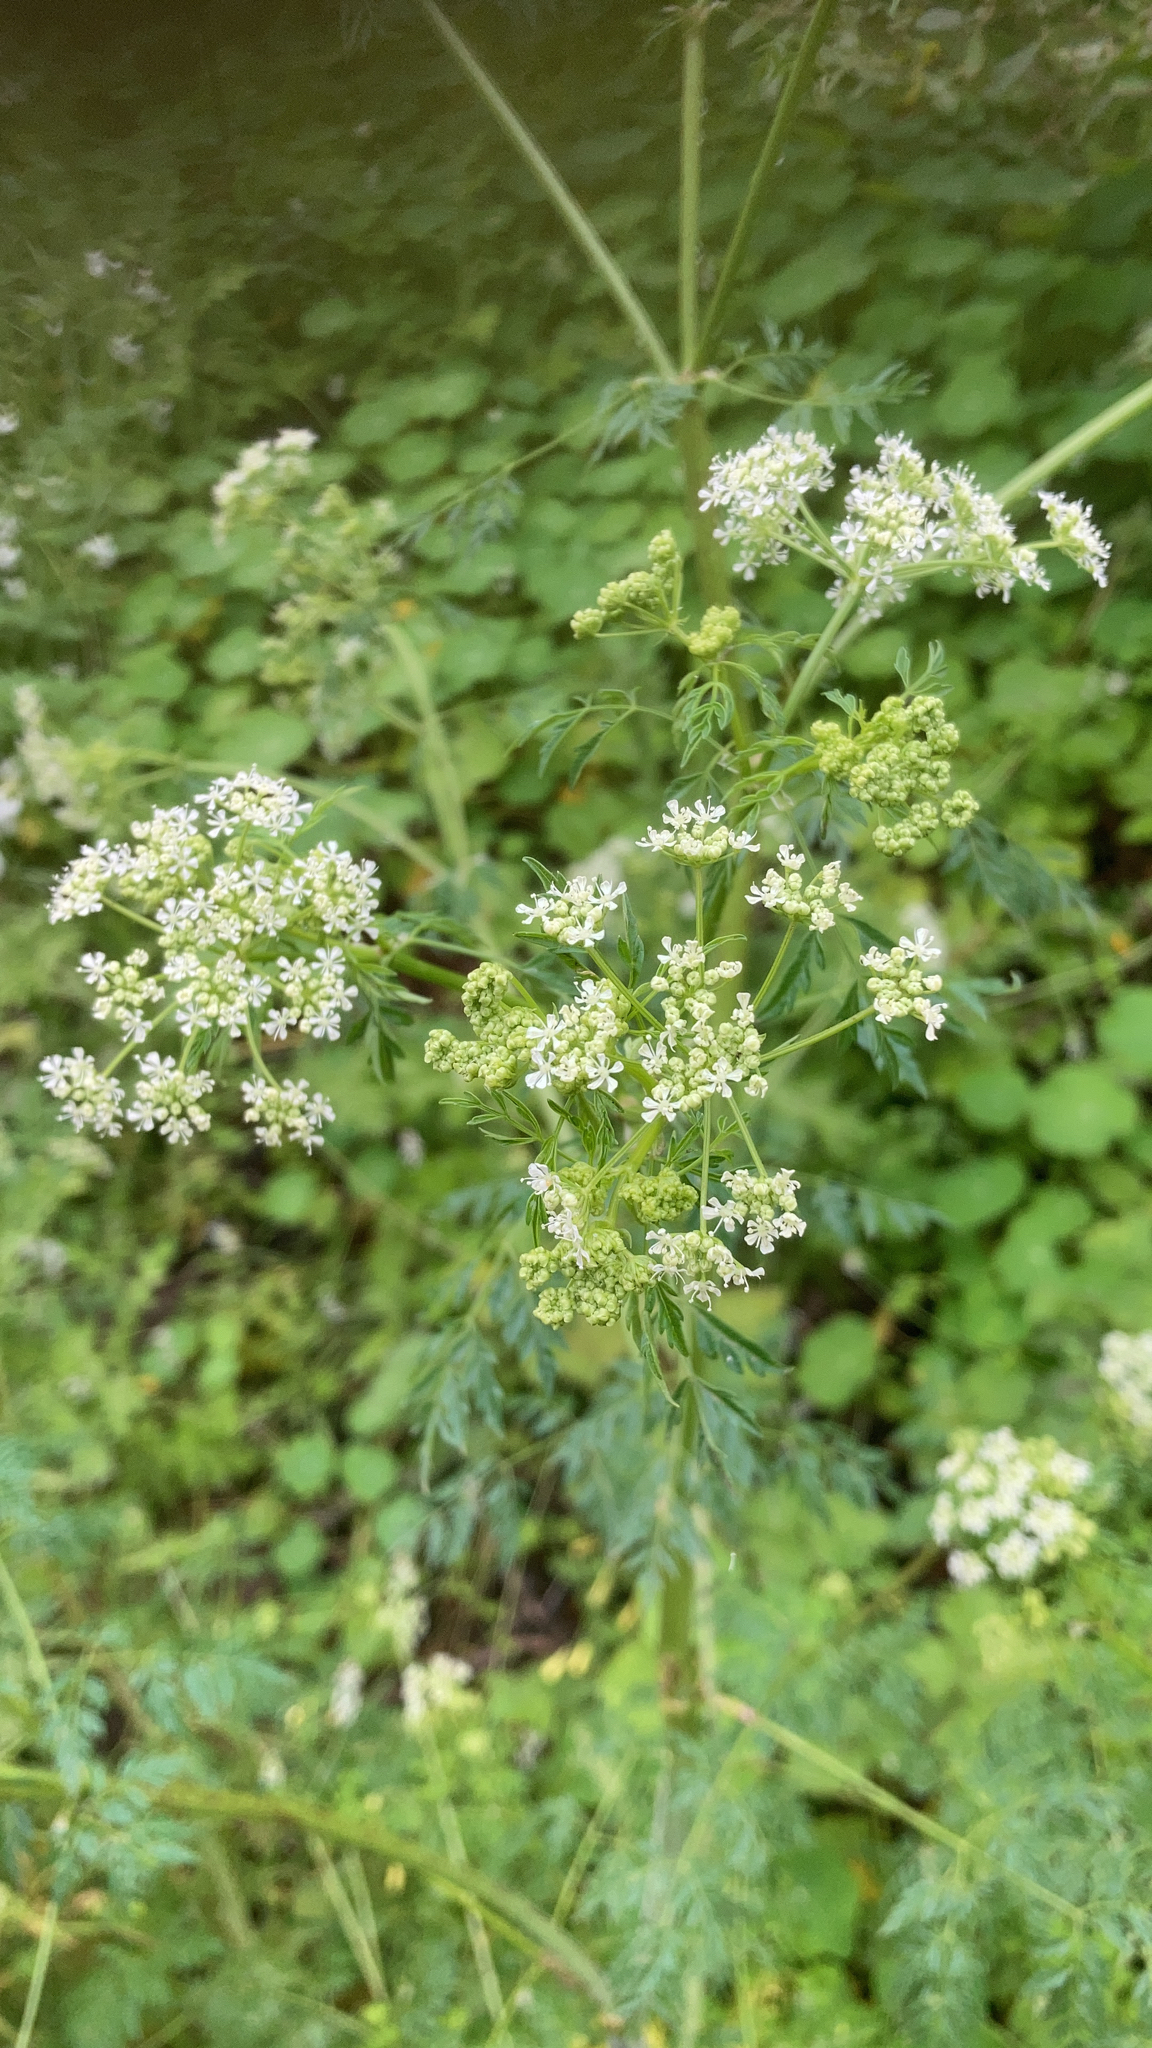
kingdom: Plantae
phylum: Tracheophyta
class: Magnoliopsida
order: Apiales
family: Apiaceae
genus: Conium
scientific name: Conium maculatum
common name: Hemlock
